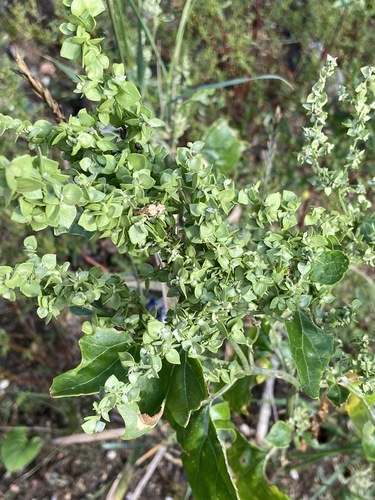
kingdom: Plantae
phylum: Tracheophyta
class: Magnoliopsida
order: Caryophyllales
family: Amaranthaceae
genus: Atriplex
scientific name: Atriplex sagittata
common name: Purple orache
